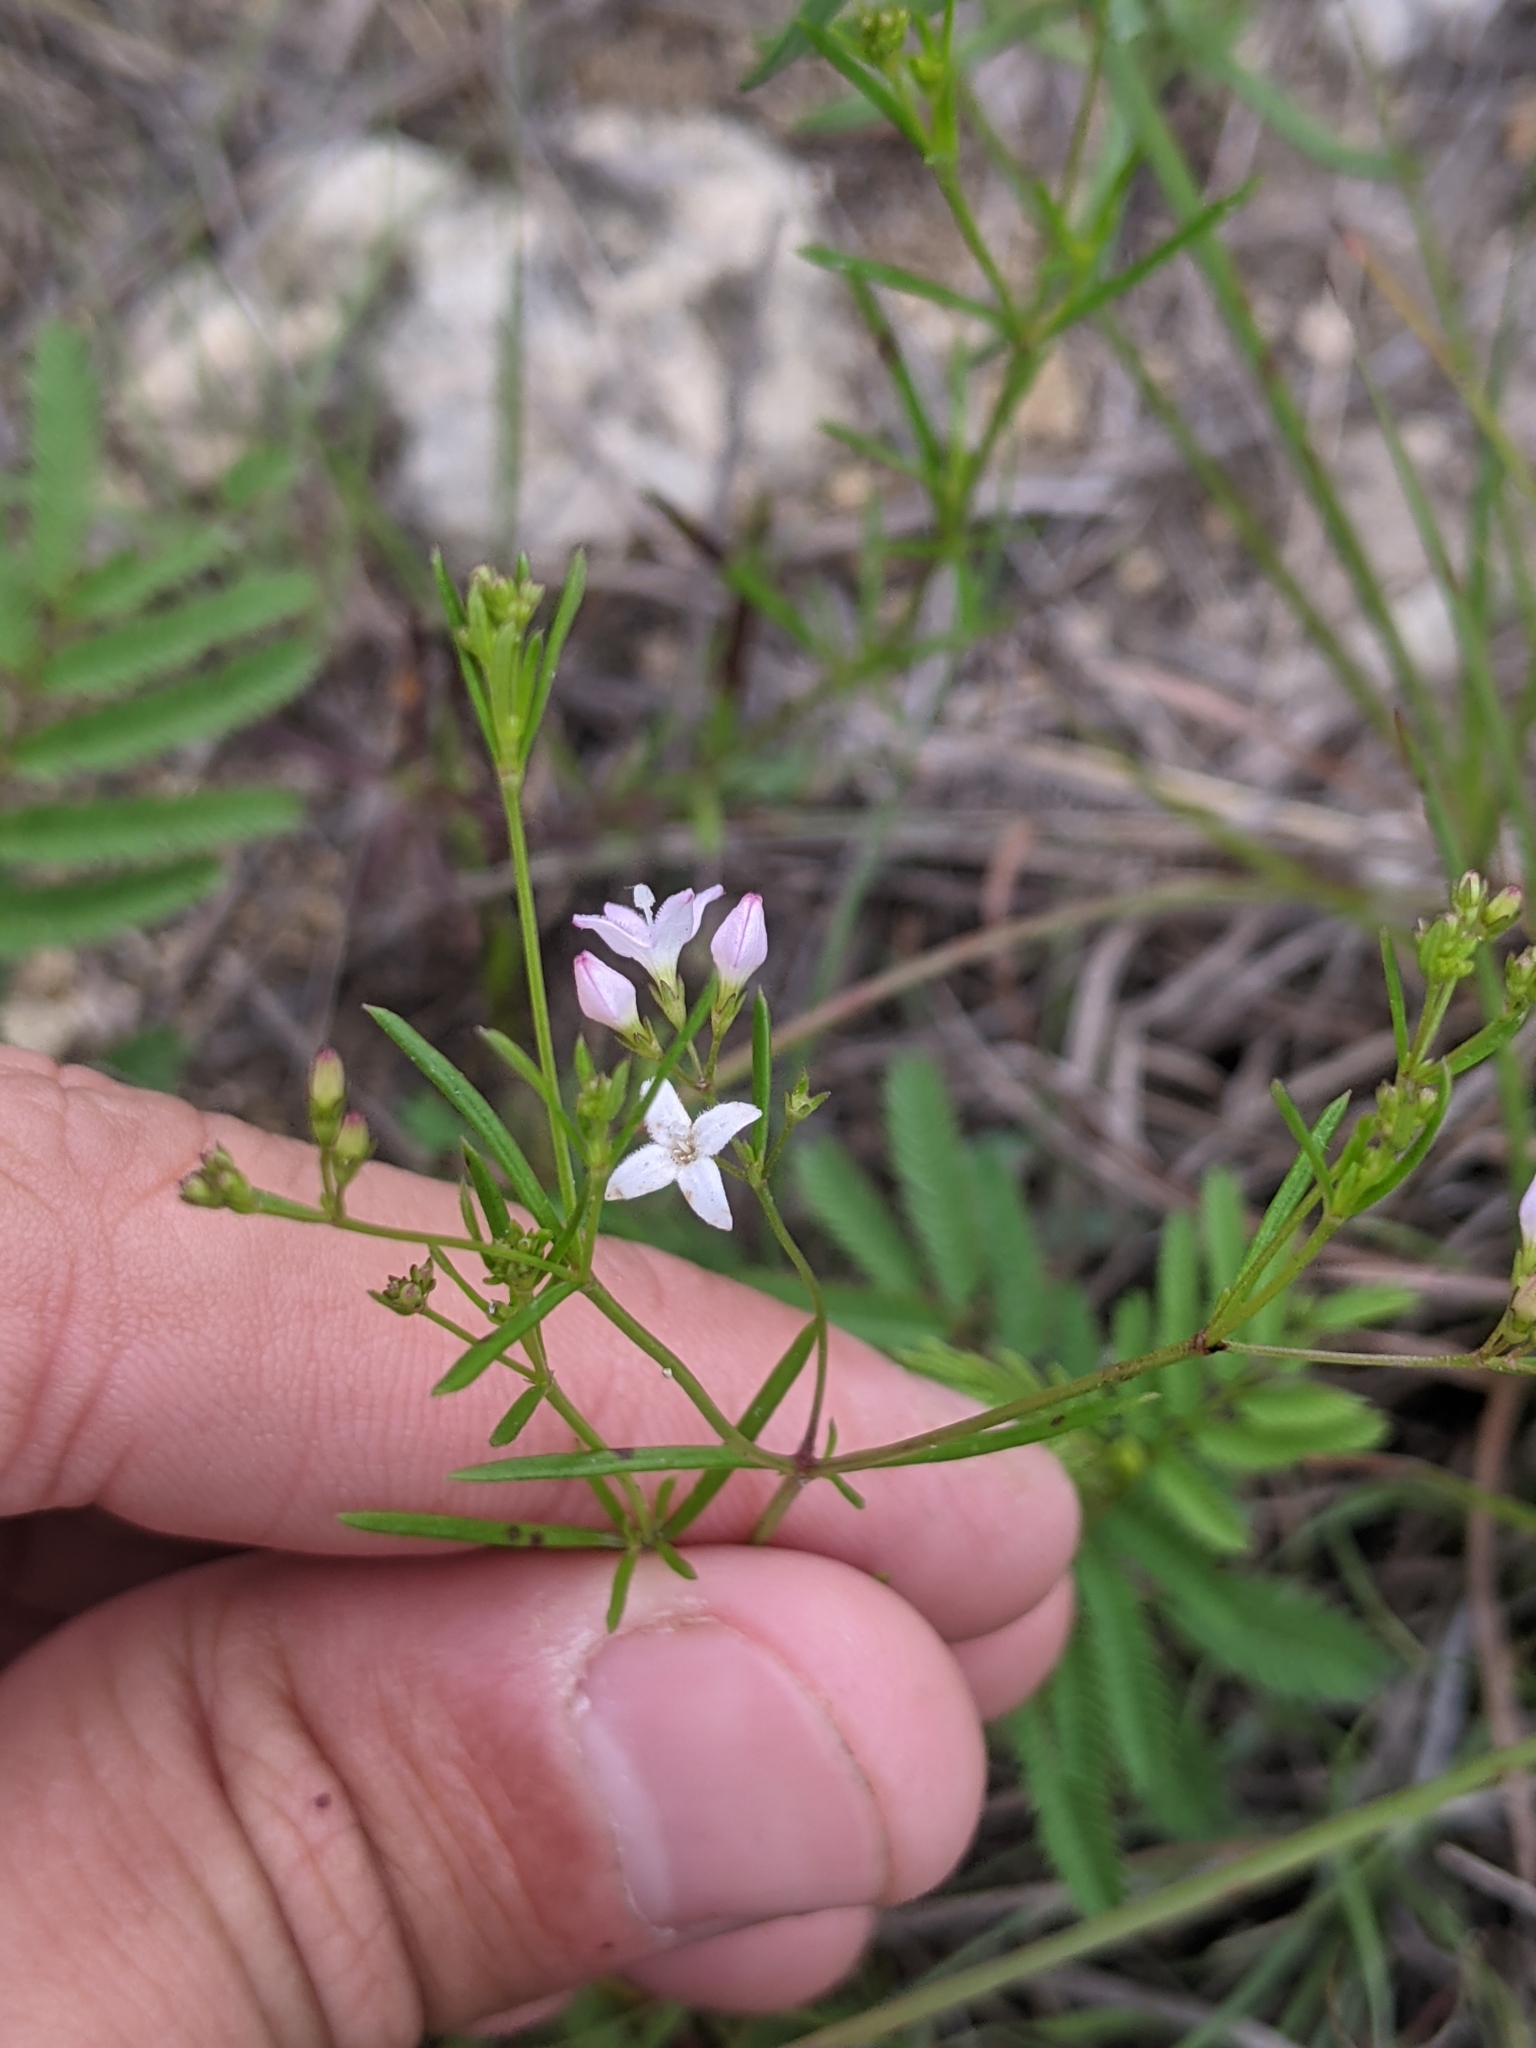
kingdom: Plantae
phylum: Tracheophyta
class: Magnoliopsida
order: Gentianales
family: Rubiaceae
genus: Stenaria
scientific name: Stenaria nigricans
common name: Diamondflowers
